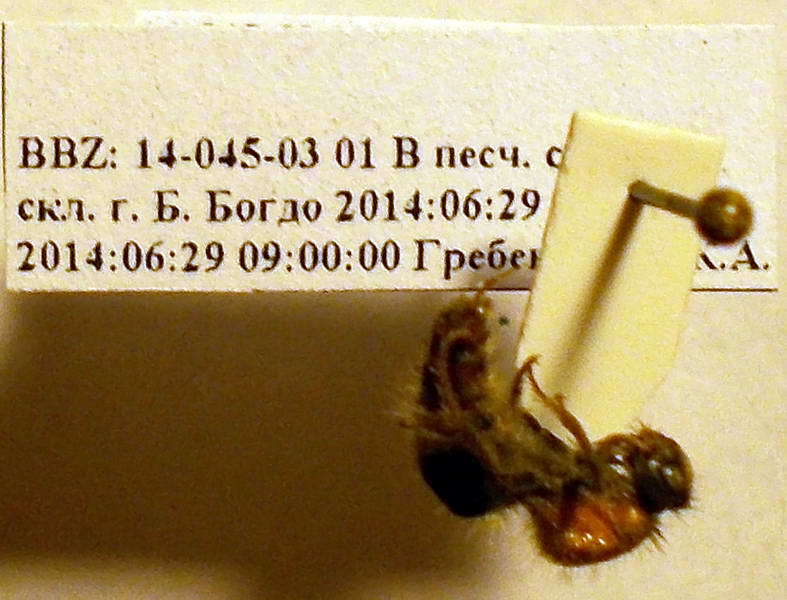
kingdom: Animalia
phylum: Arthropoda
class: Insecta
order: Hymenoptera
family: Mutillidae
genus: Nemka
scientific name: Nemka viduata
